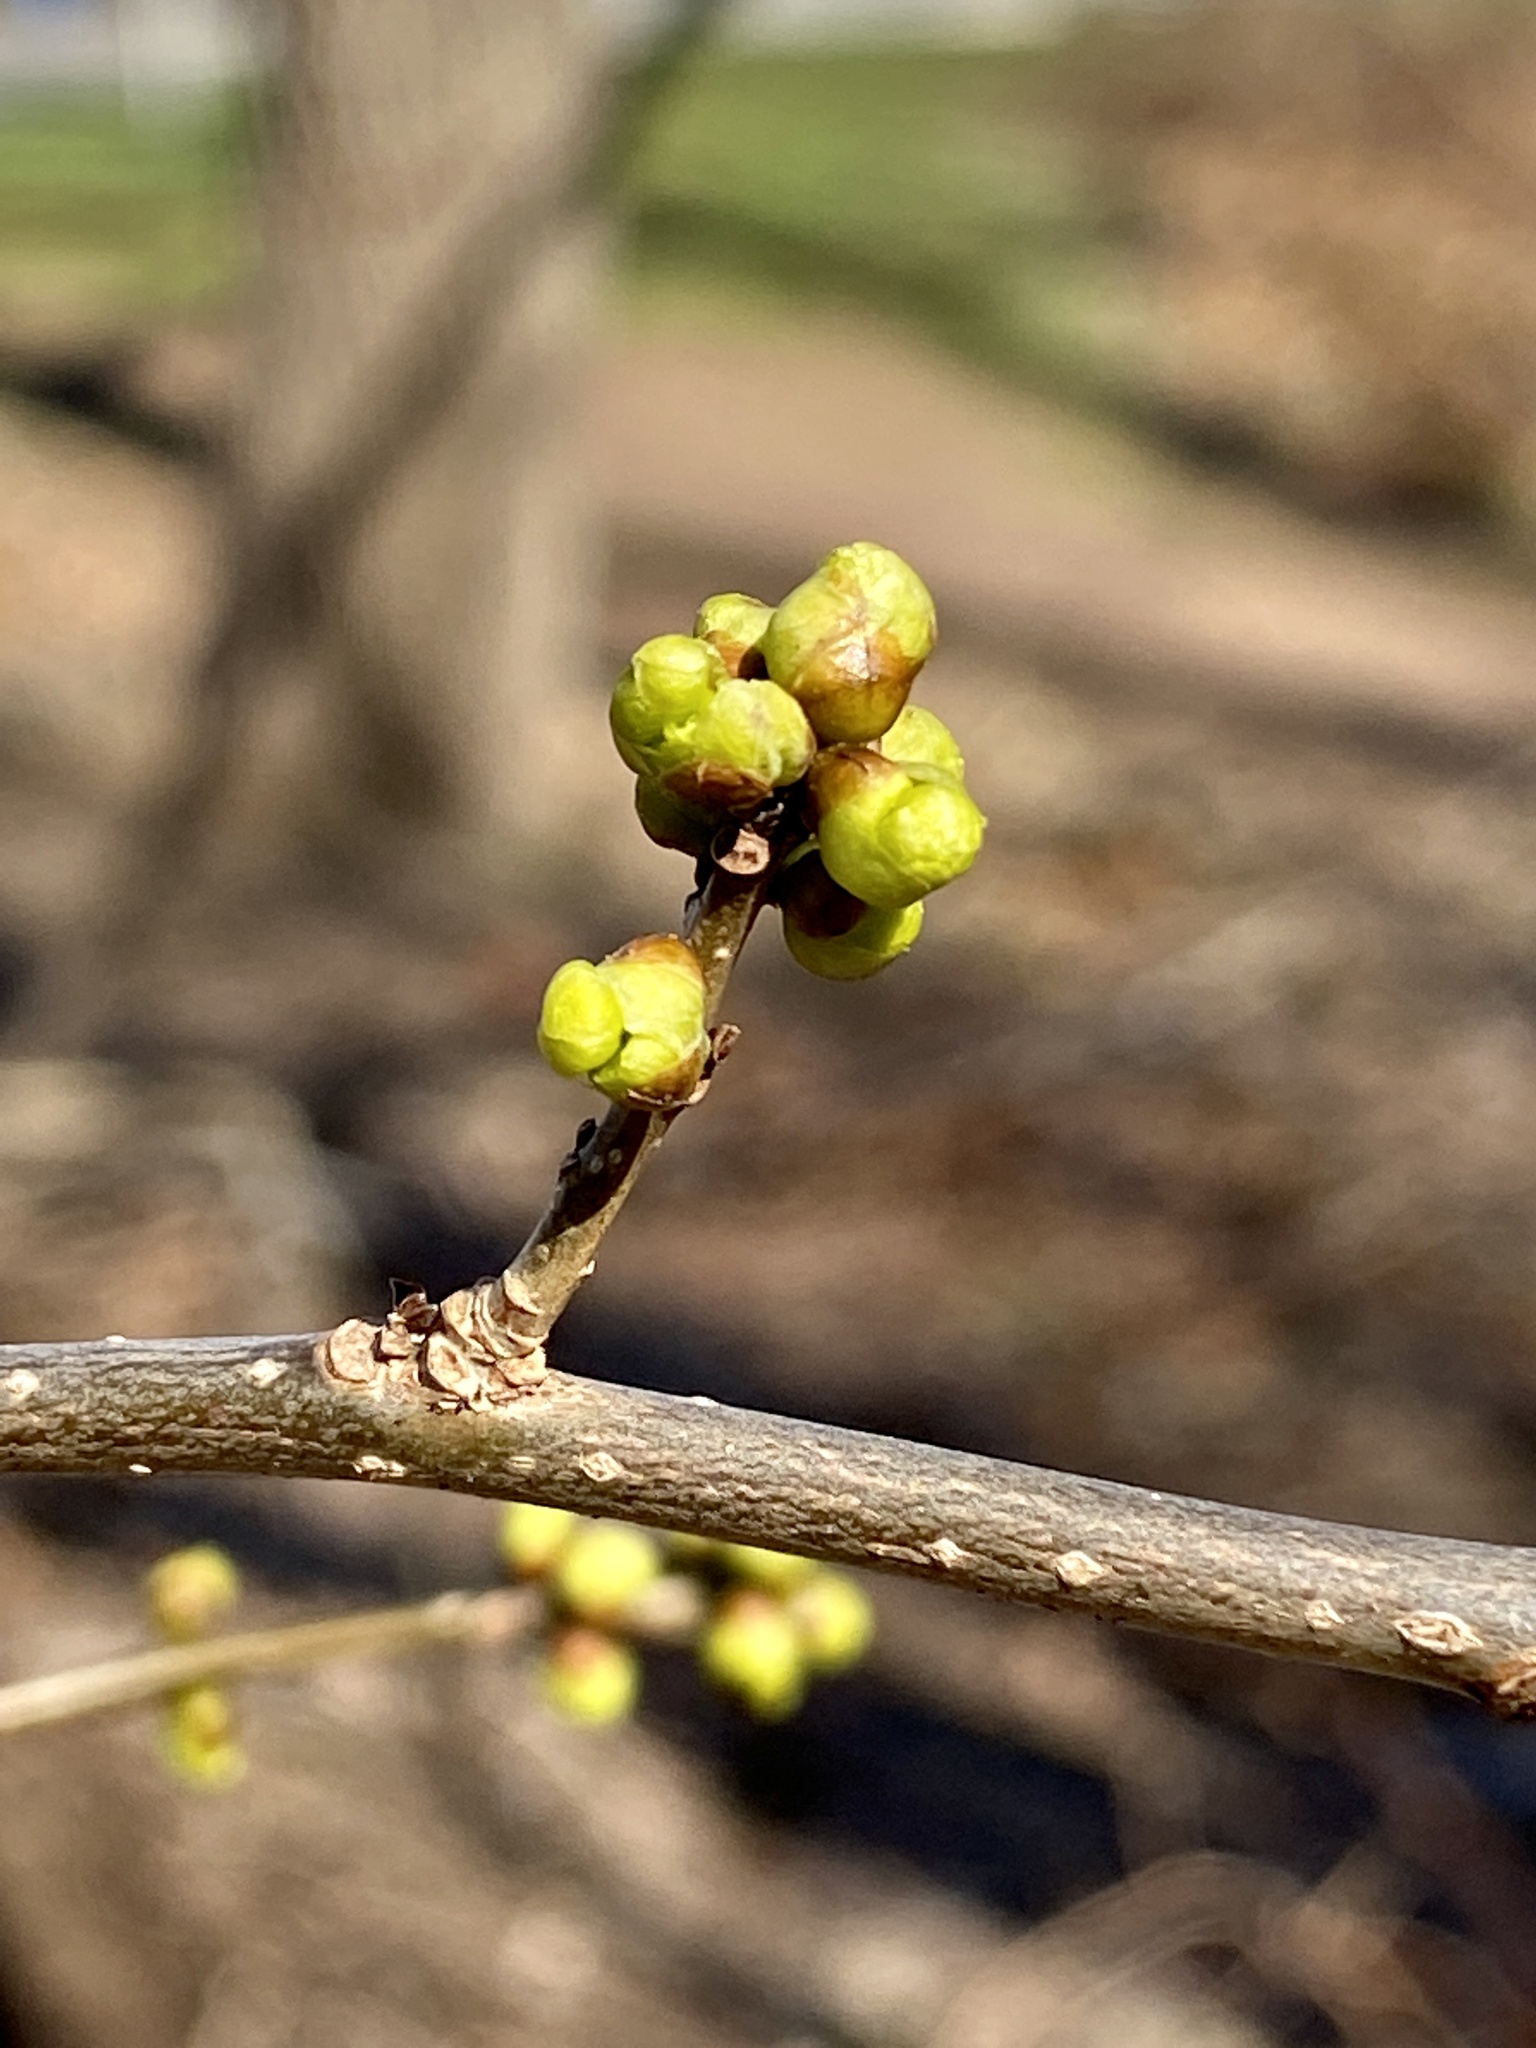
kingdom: Plantae
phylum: Tracheophyta
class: Magnoliopsida
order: Laurales
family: Lauraceae
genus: Lindera
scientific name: Lindera benzoin
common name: Spicebush
